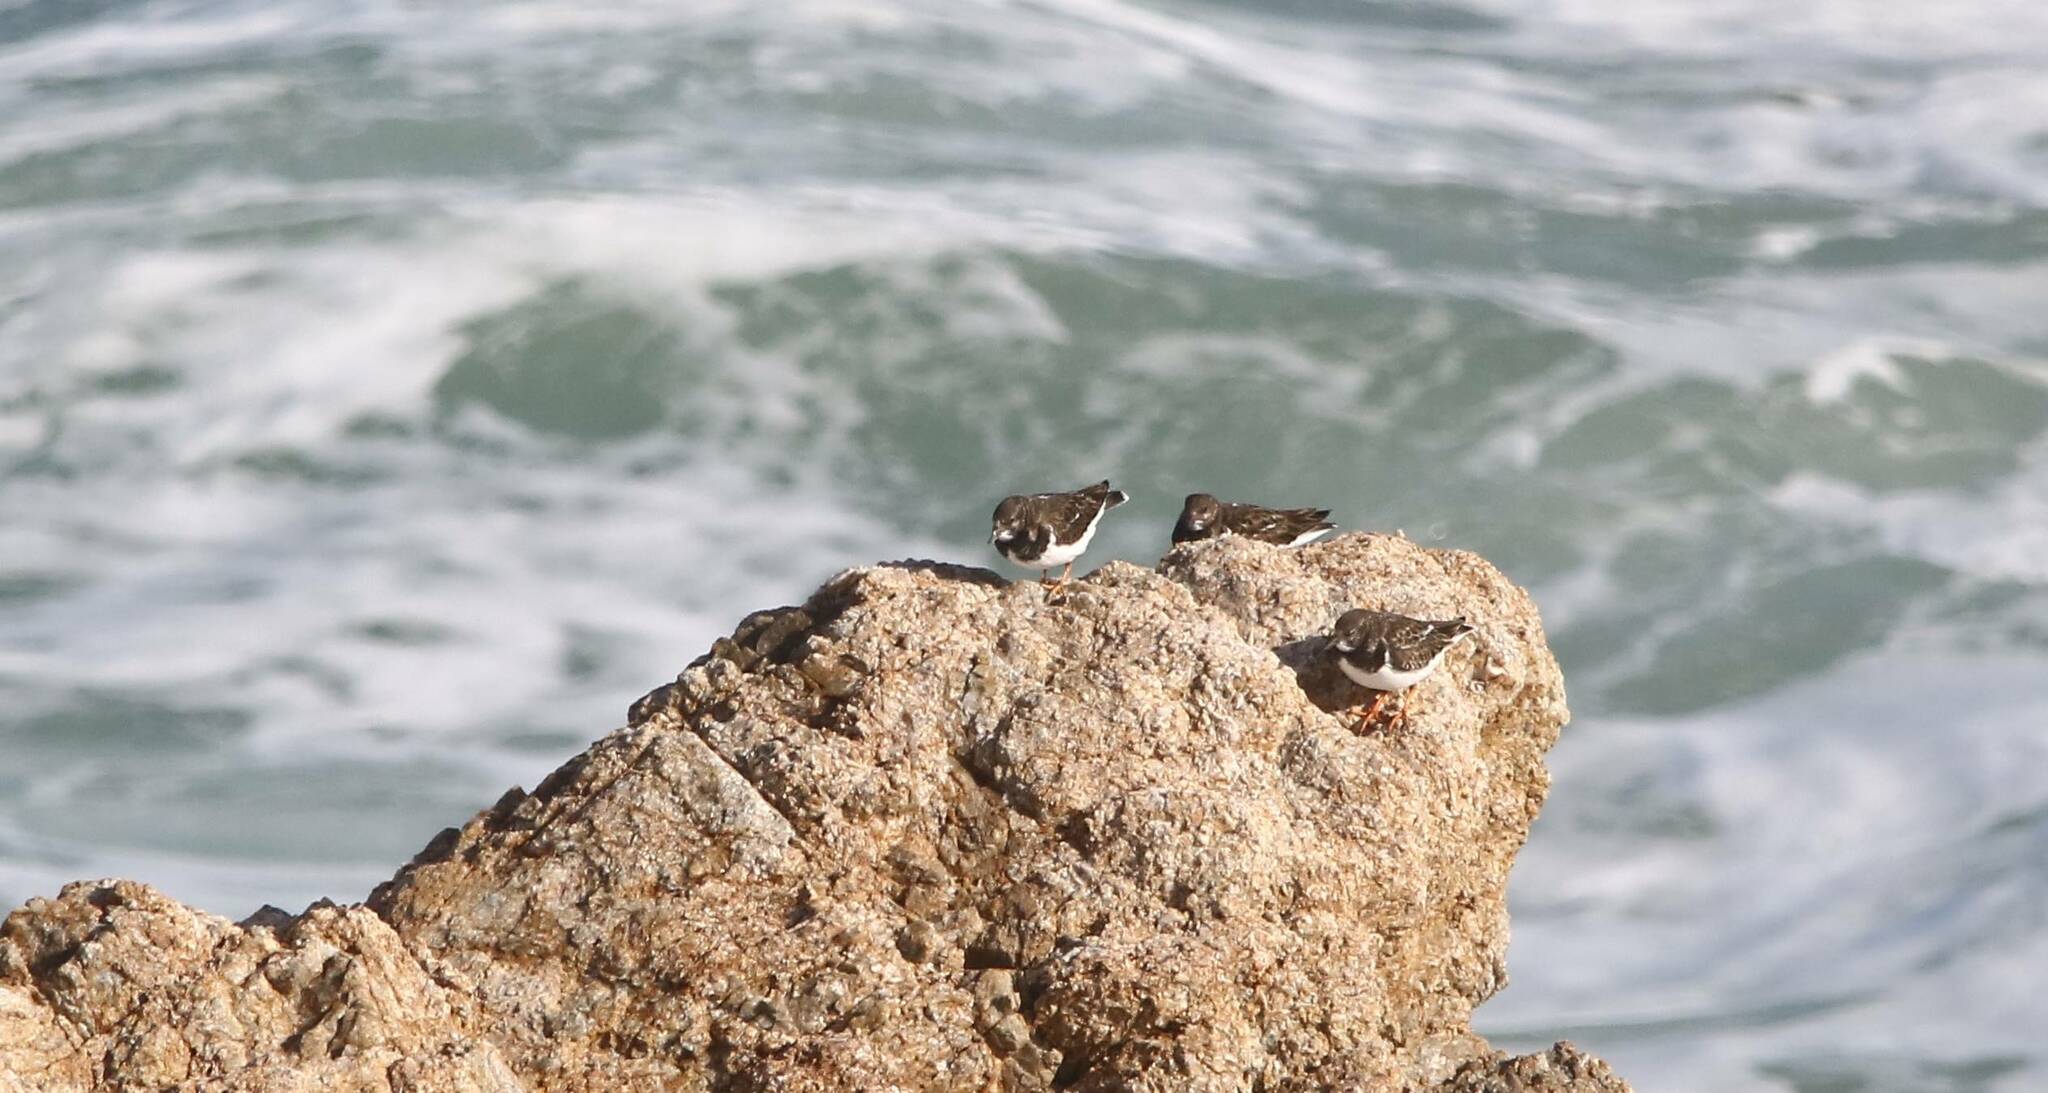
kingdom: Animalia
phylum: Chordata
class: Aves
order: Charadriiformes
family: Scolopacidae
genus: Arenaria
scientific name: Arenaria interpres
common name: Ruddy turnstone
